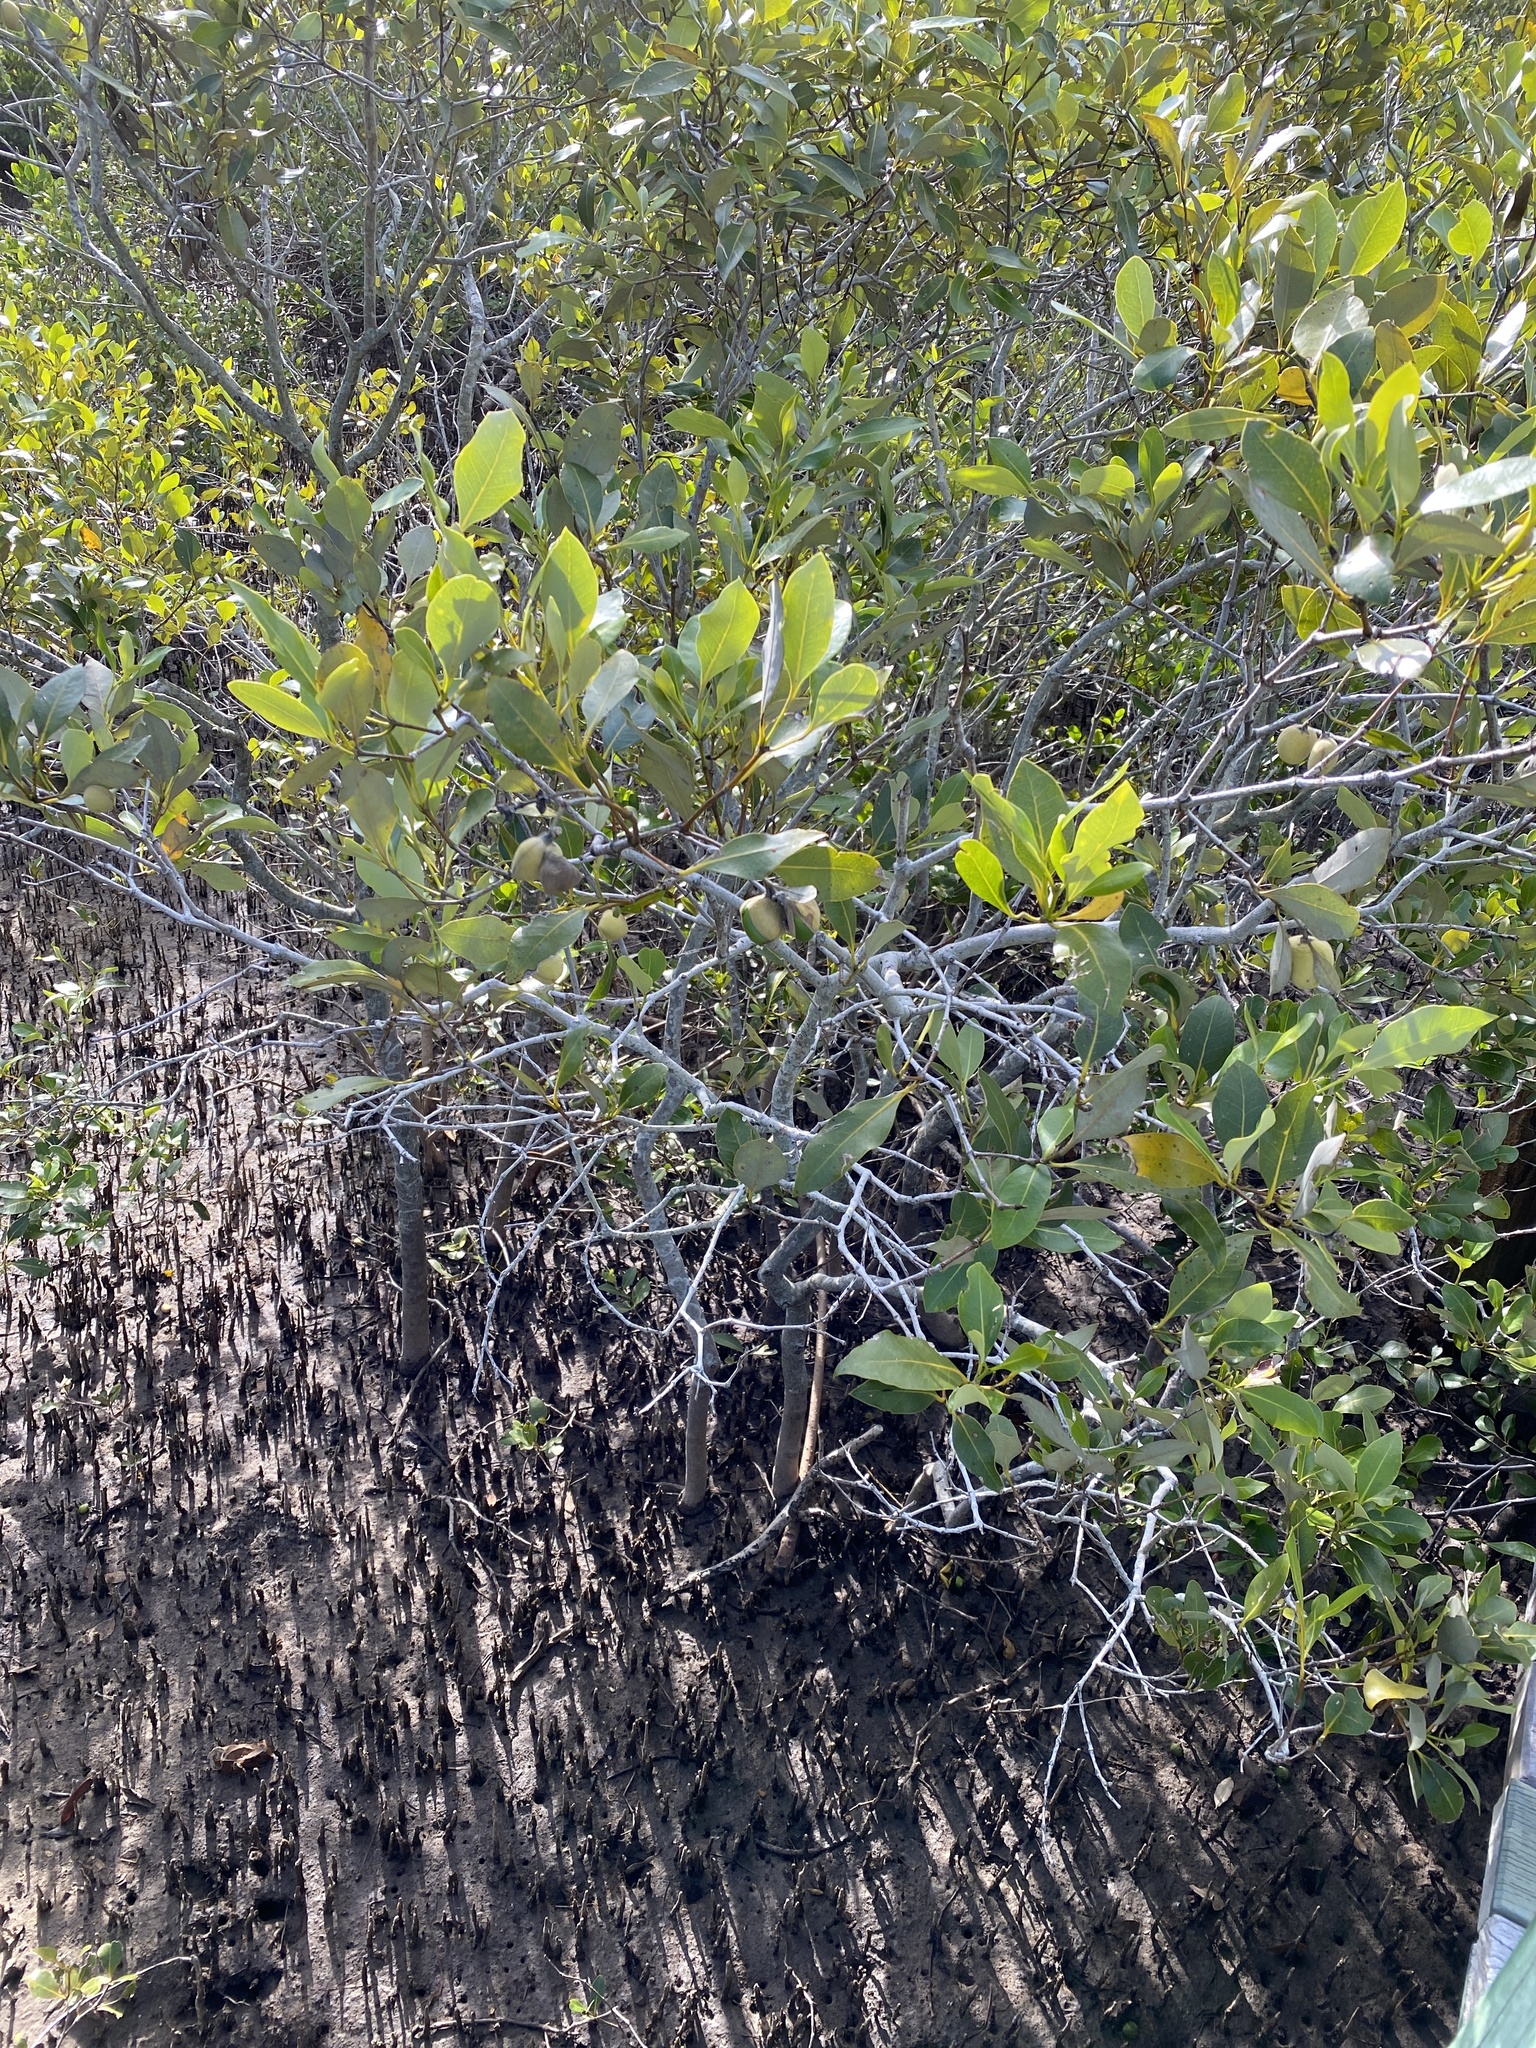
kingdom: Plantae
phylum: Tracheophyta
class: Magnoliopsida
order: Lamiales
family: Acanthaceae
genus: Avicennia
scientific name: Avicennia marina
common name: Gray mangrove
